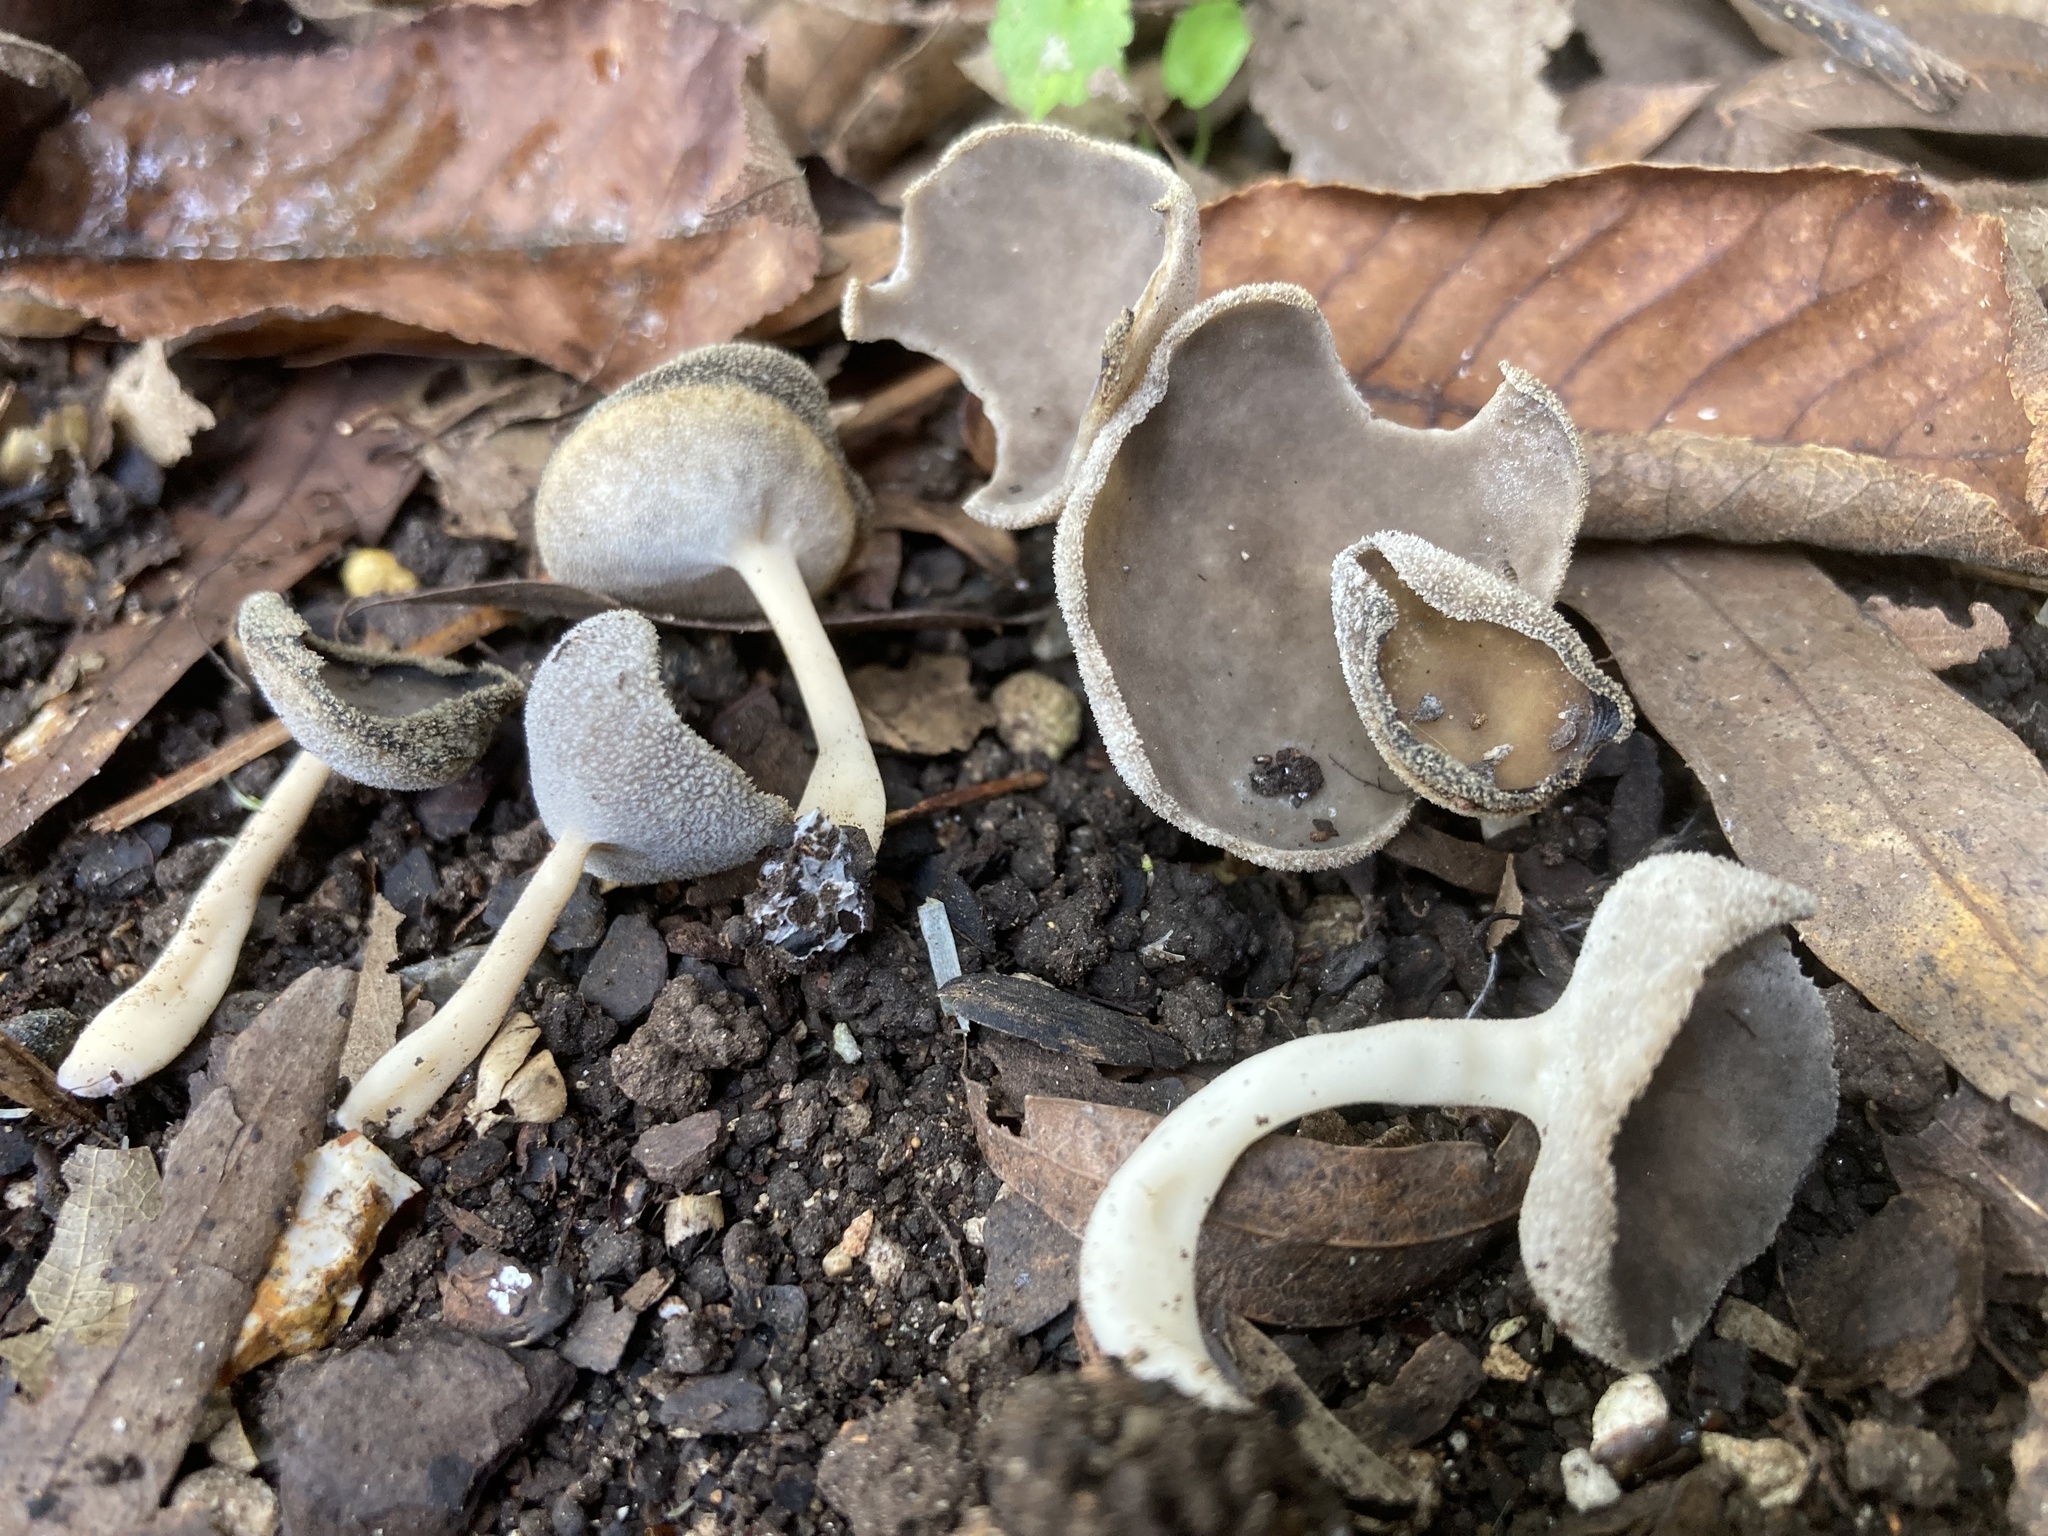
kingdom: Fungi
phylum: Ascomycota
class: Pezizomycetes
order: Pezizales
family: Helvellaceae
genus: Helvella
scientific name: Helvella macropus
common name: Felt saddle
